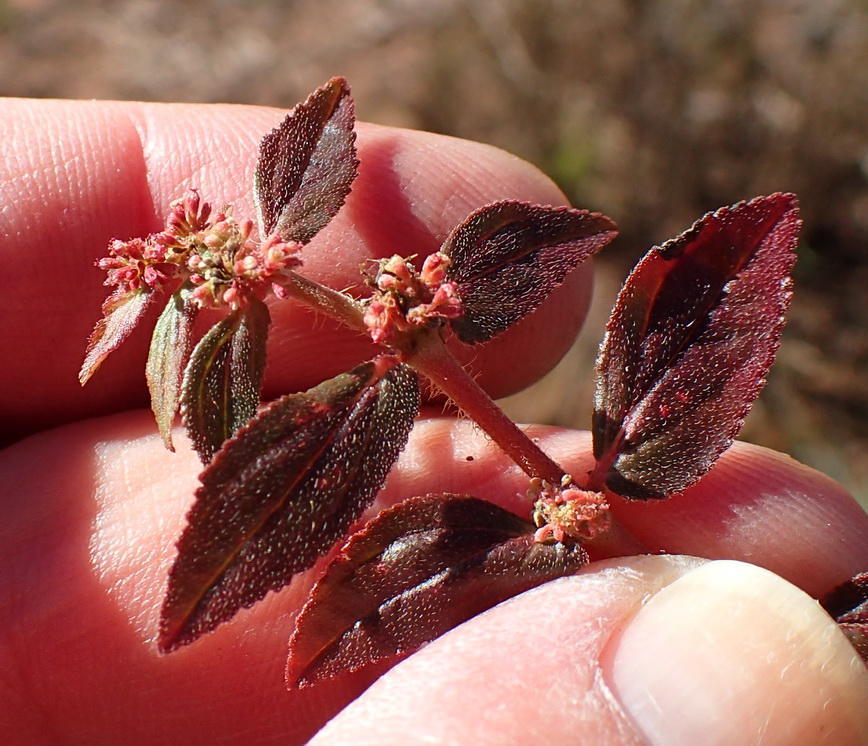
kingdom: Plantae
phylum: Tracheophyta
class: Magnoliopsida
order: Malpighiales
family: Euphorbiaceae
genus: Euphorbia
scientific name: Euphorbia hirta
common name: Pillpod sandmat
